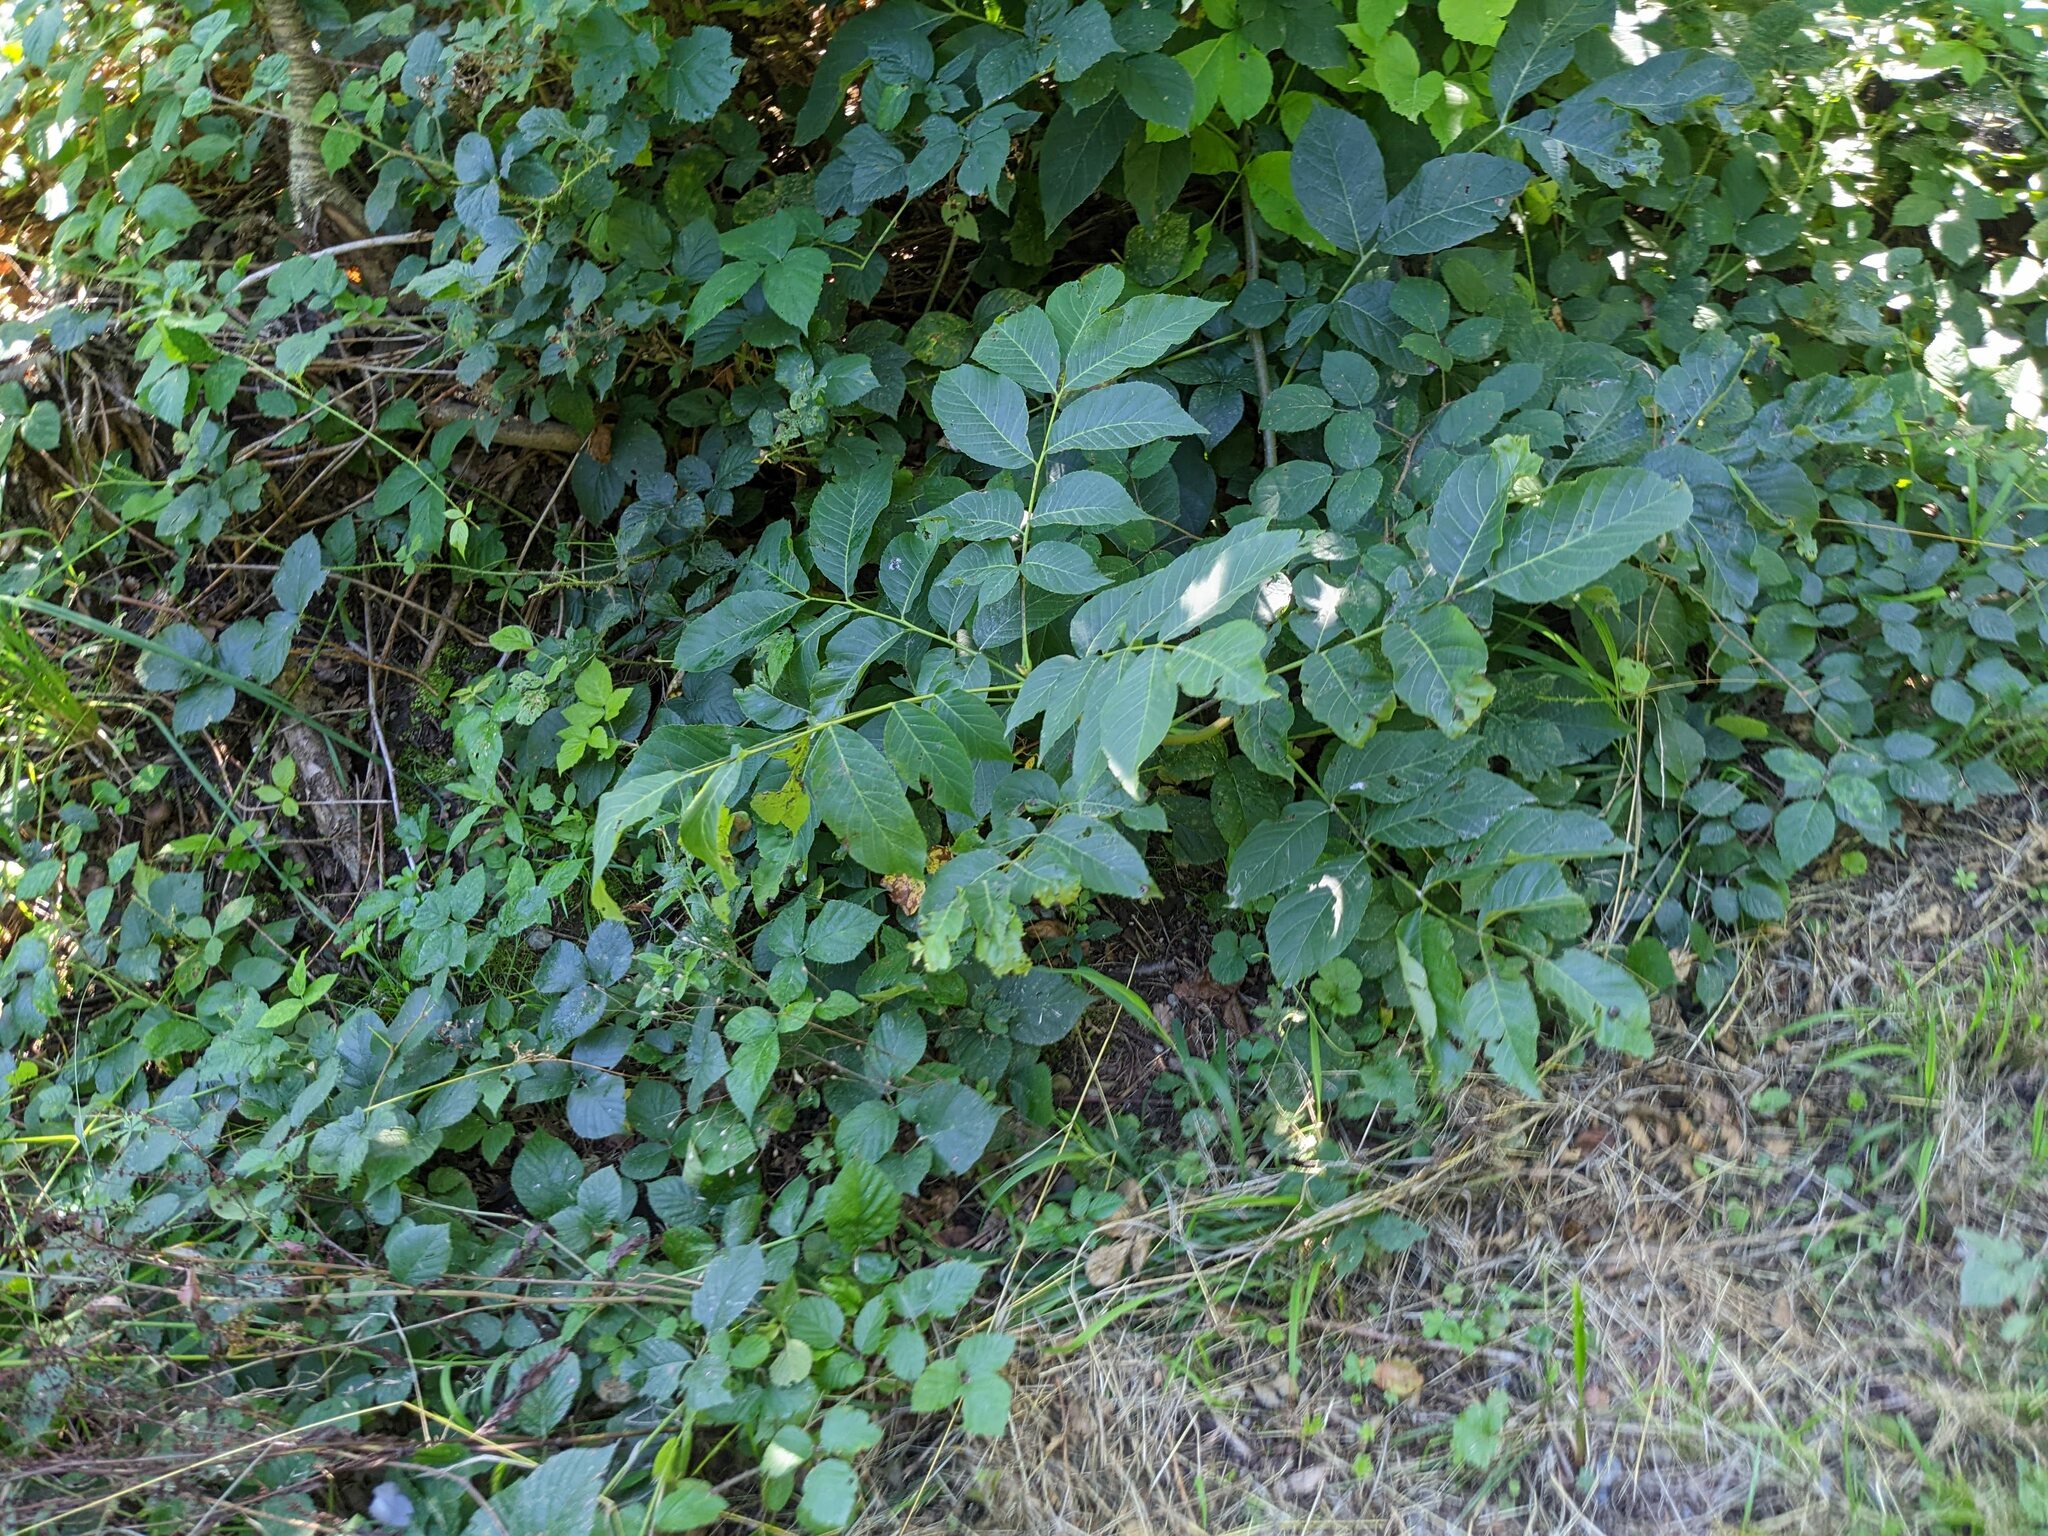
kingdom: Plantae
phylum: Tracheophyta
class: Magnoliopsida
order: Fagales
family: Juglandaceae
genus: Juglans
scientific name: Juglans regia
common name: Walnut
